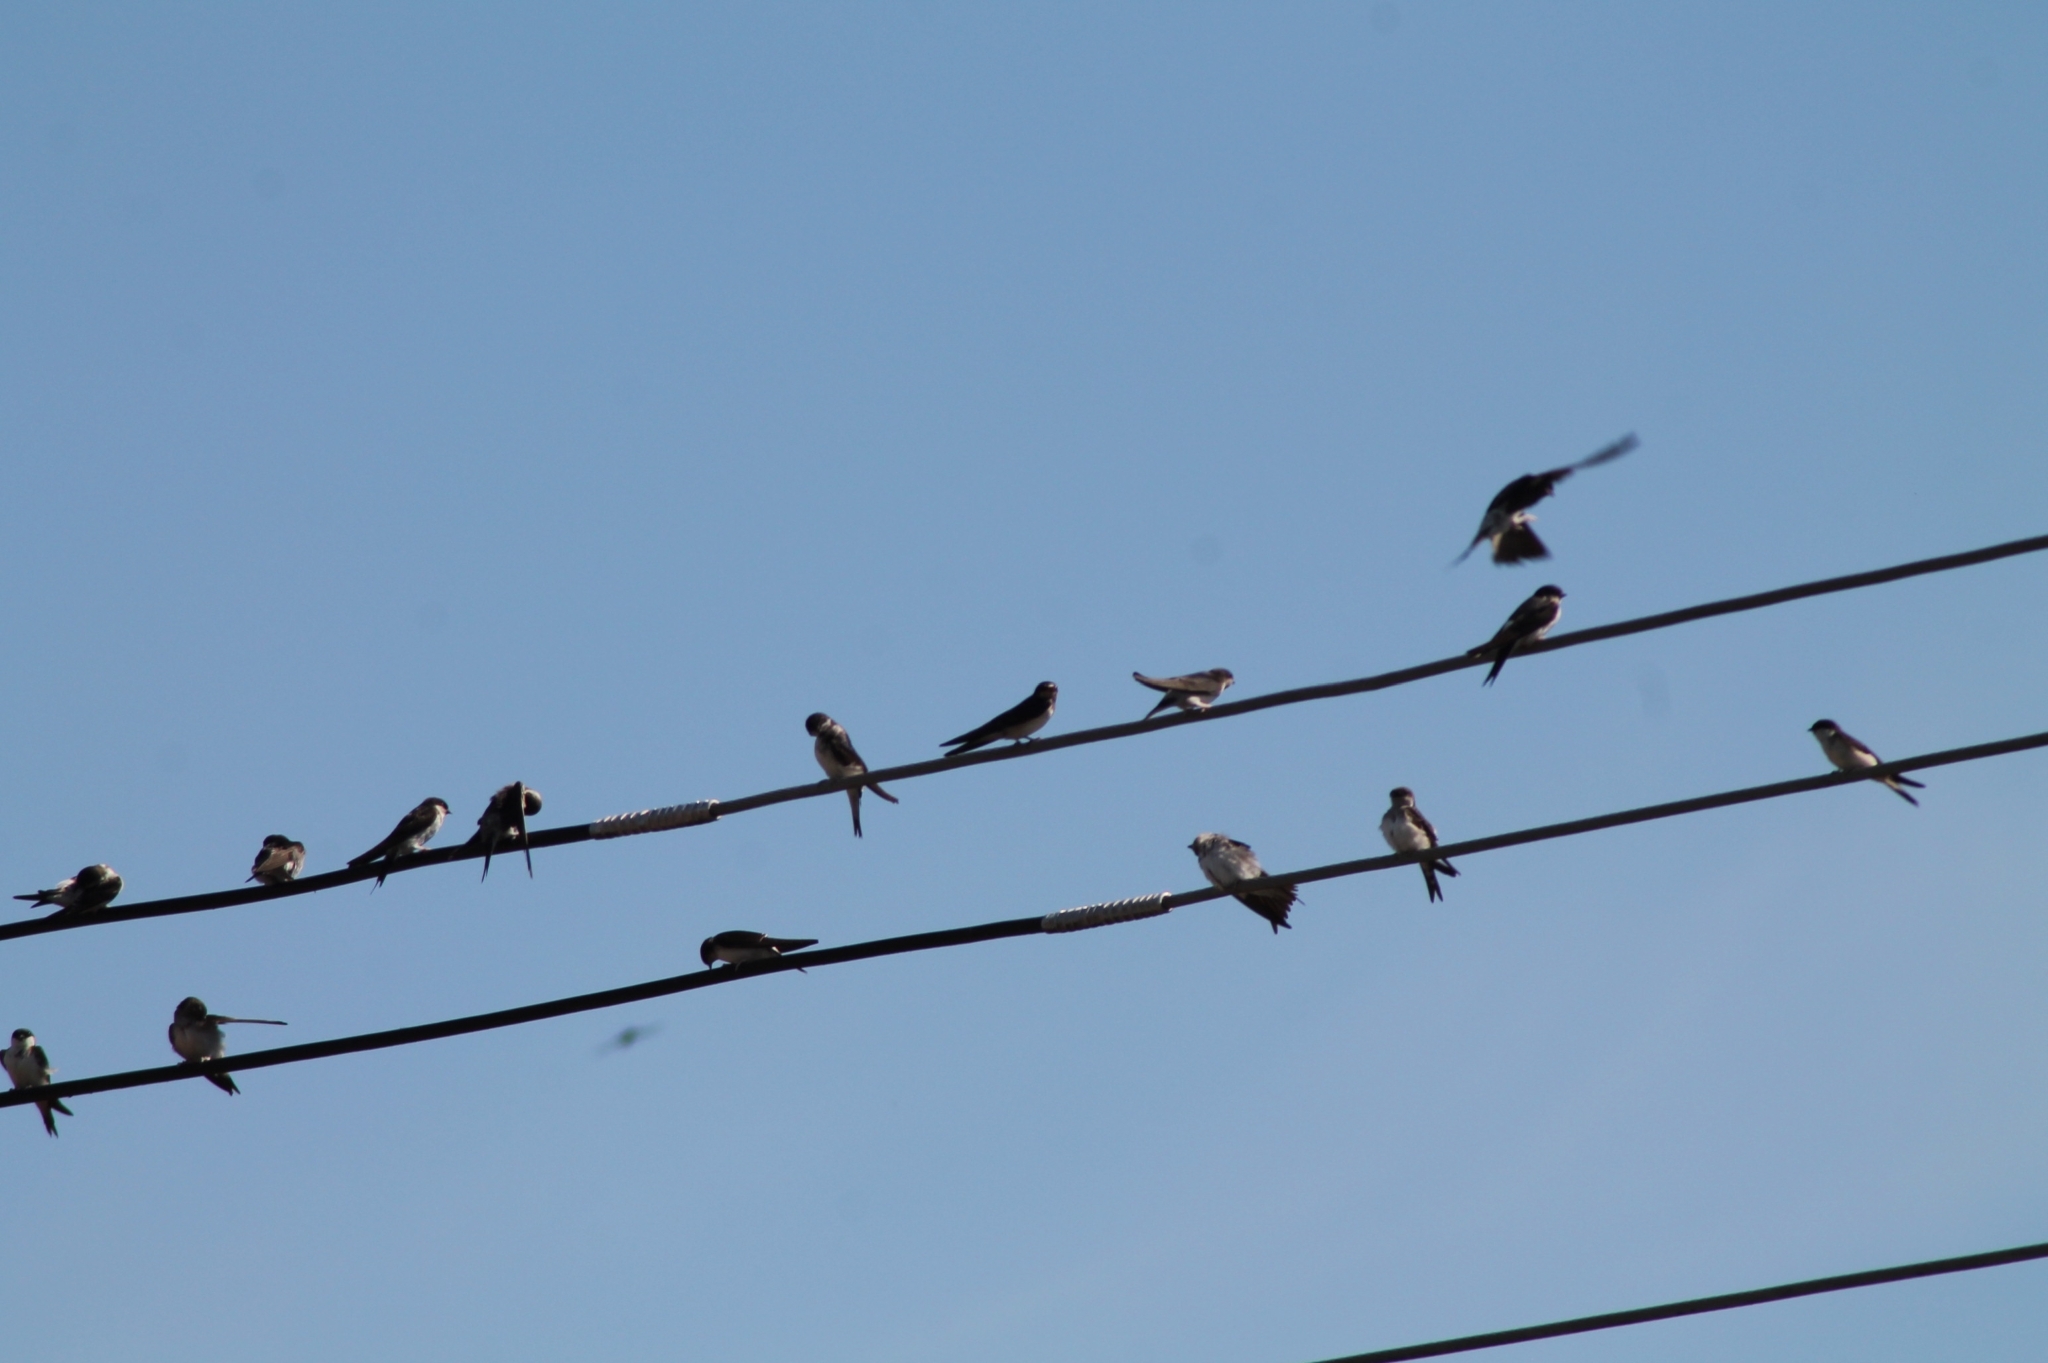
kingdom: Animalia
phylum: Chordata
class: Aves
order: Passeriformes
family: Hirundinidae
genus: Delichon
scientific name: Delichon urbicum
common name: Common house martin
